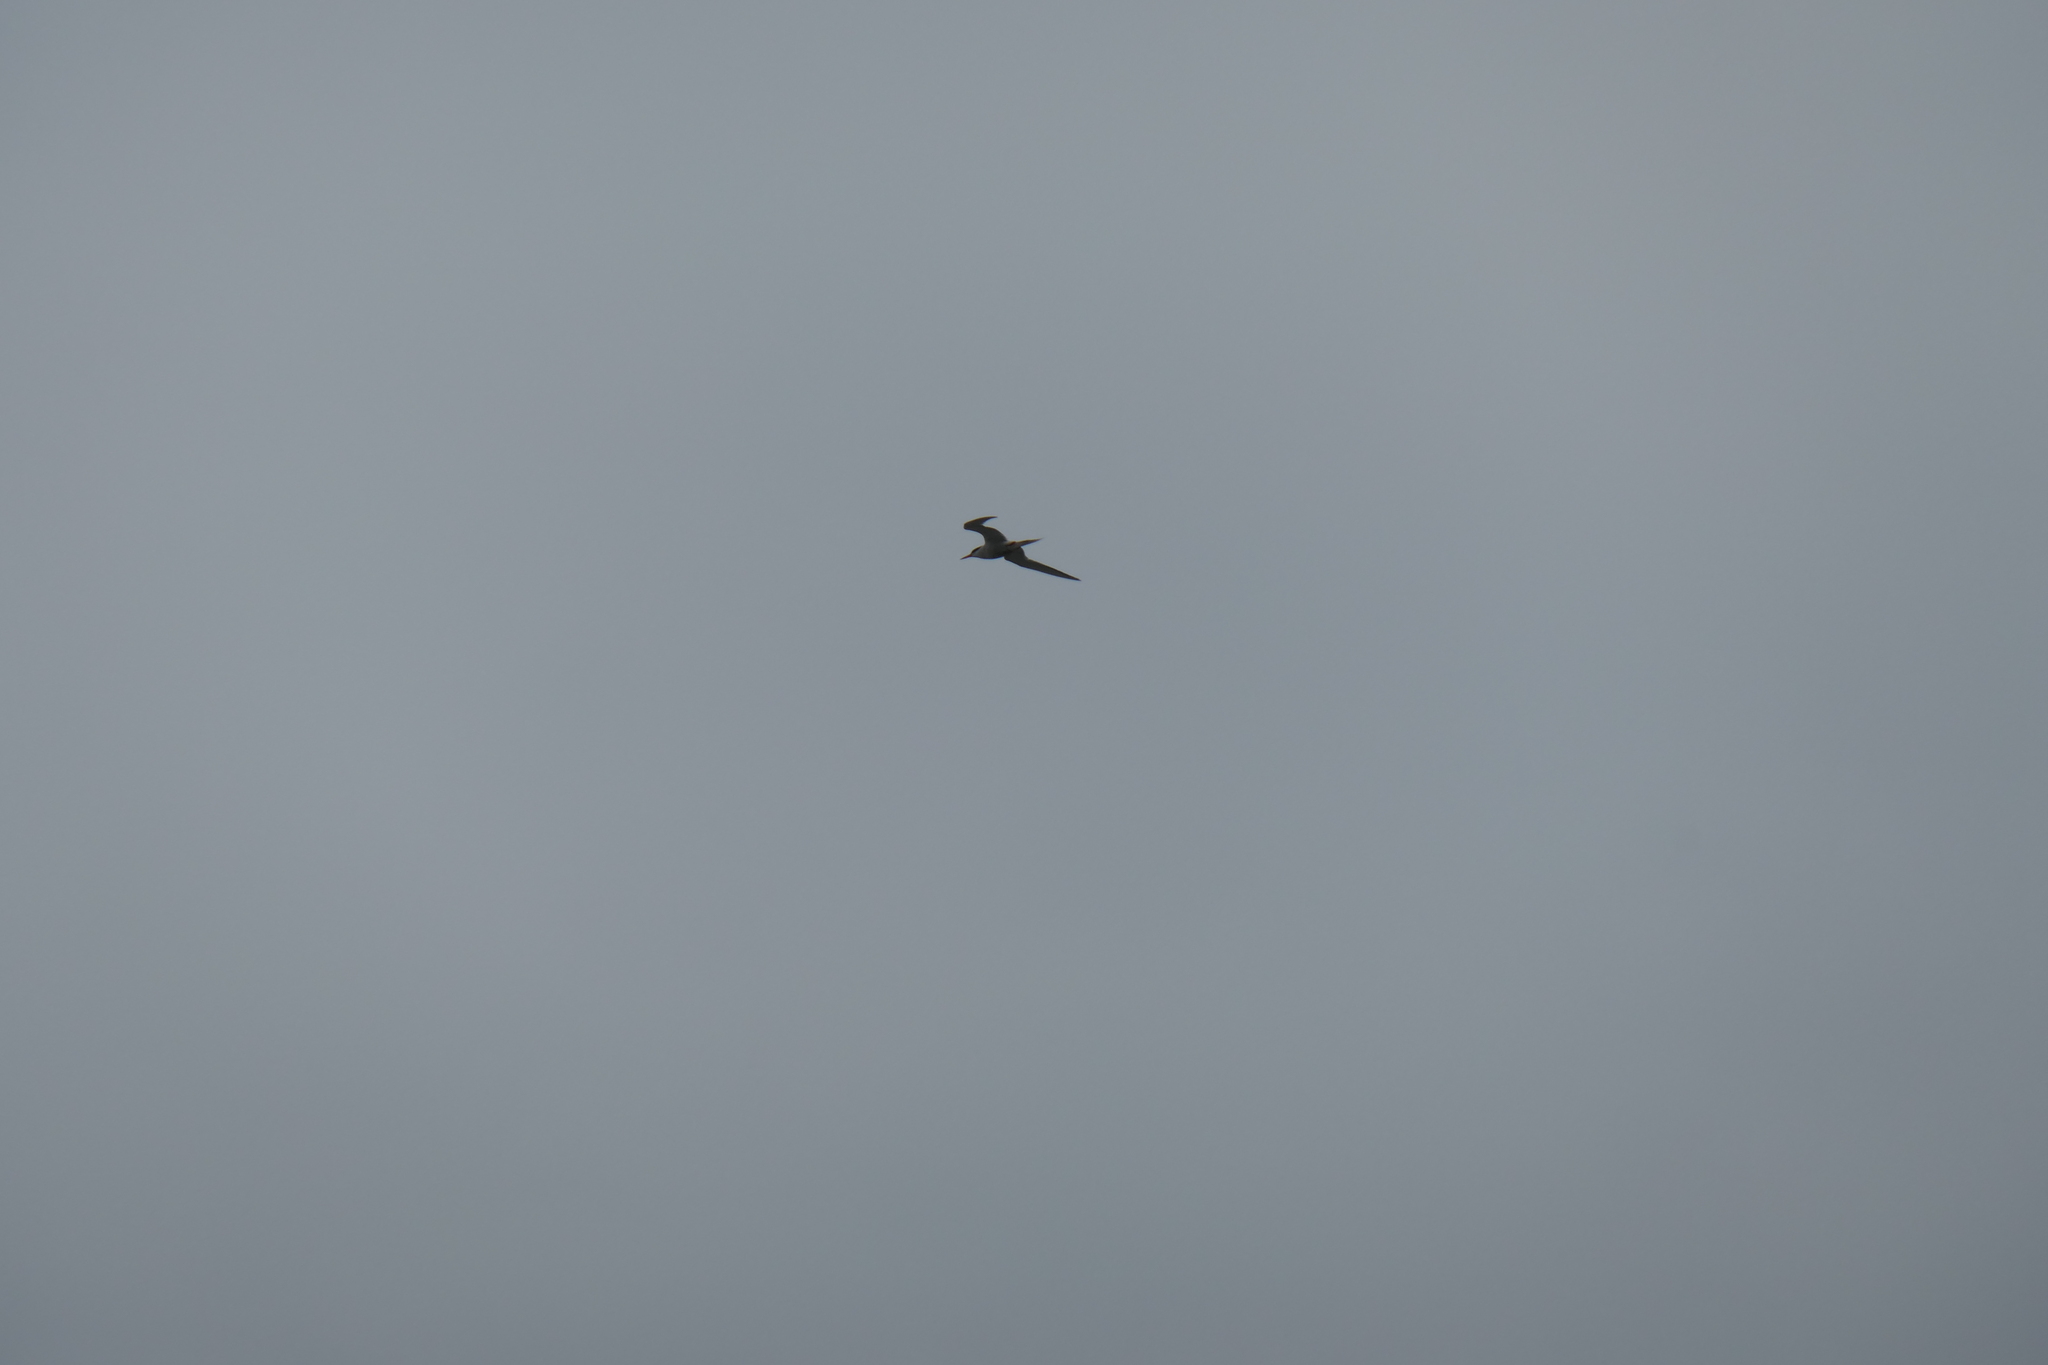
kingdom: Animalia
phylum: Chordata
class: Aves
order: Charadriiformes
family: Laridae
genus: Sterna
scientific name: Sterna hirundo
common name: Common tern
